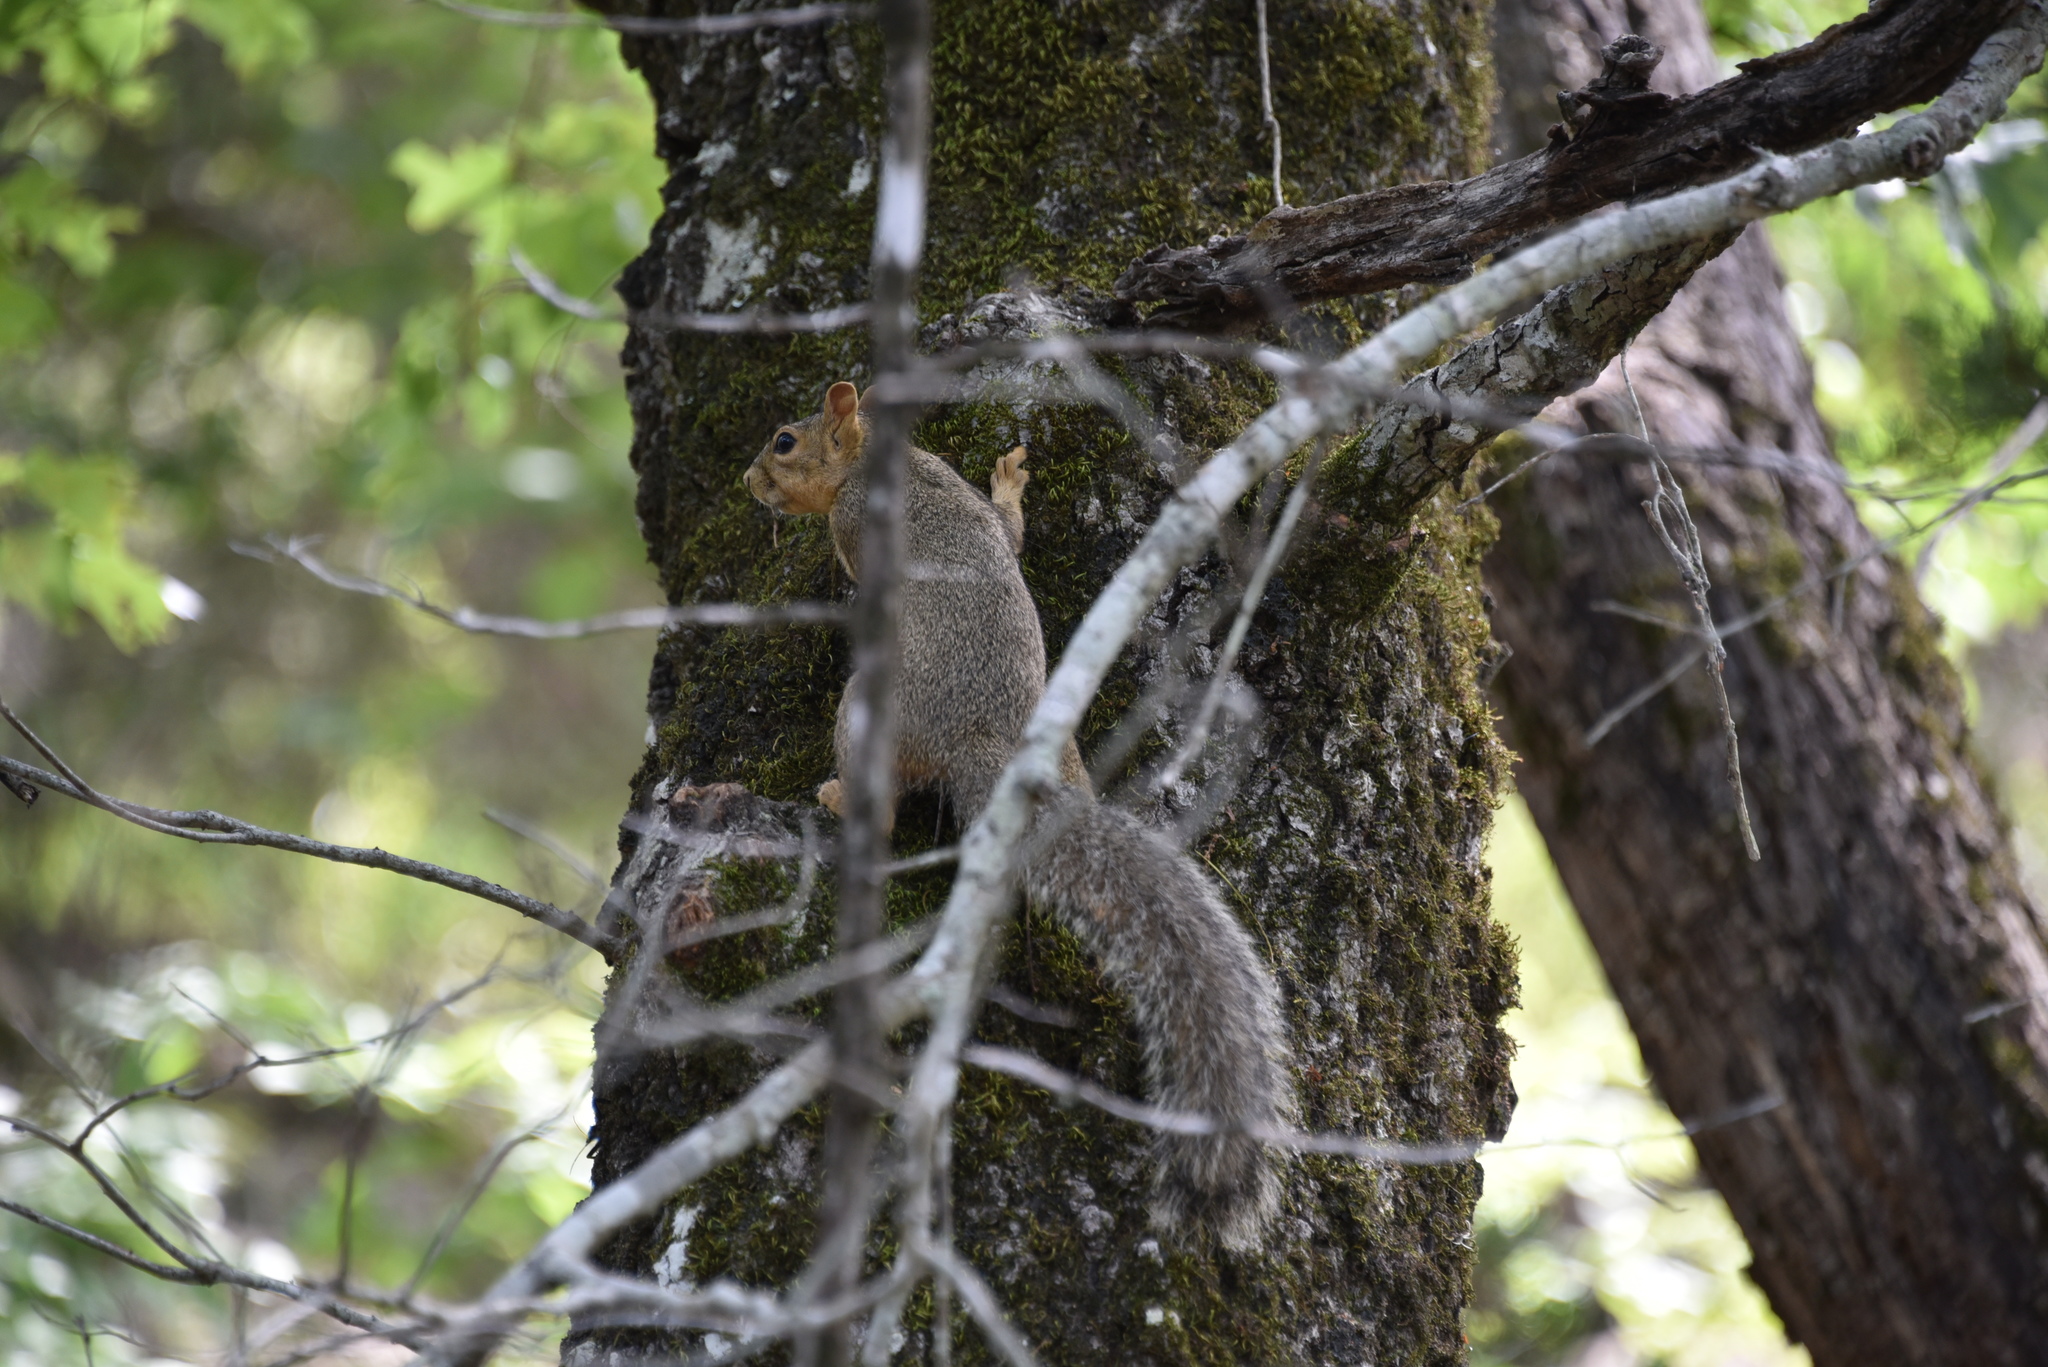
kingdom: Animalia
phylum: Chordata
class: Mammalia
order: Rodentia
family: Sciuridae
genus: Sciurus
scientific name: Sciurus niger
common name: Fox squirrel
